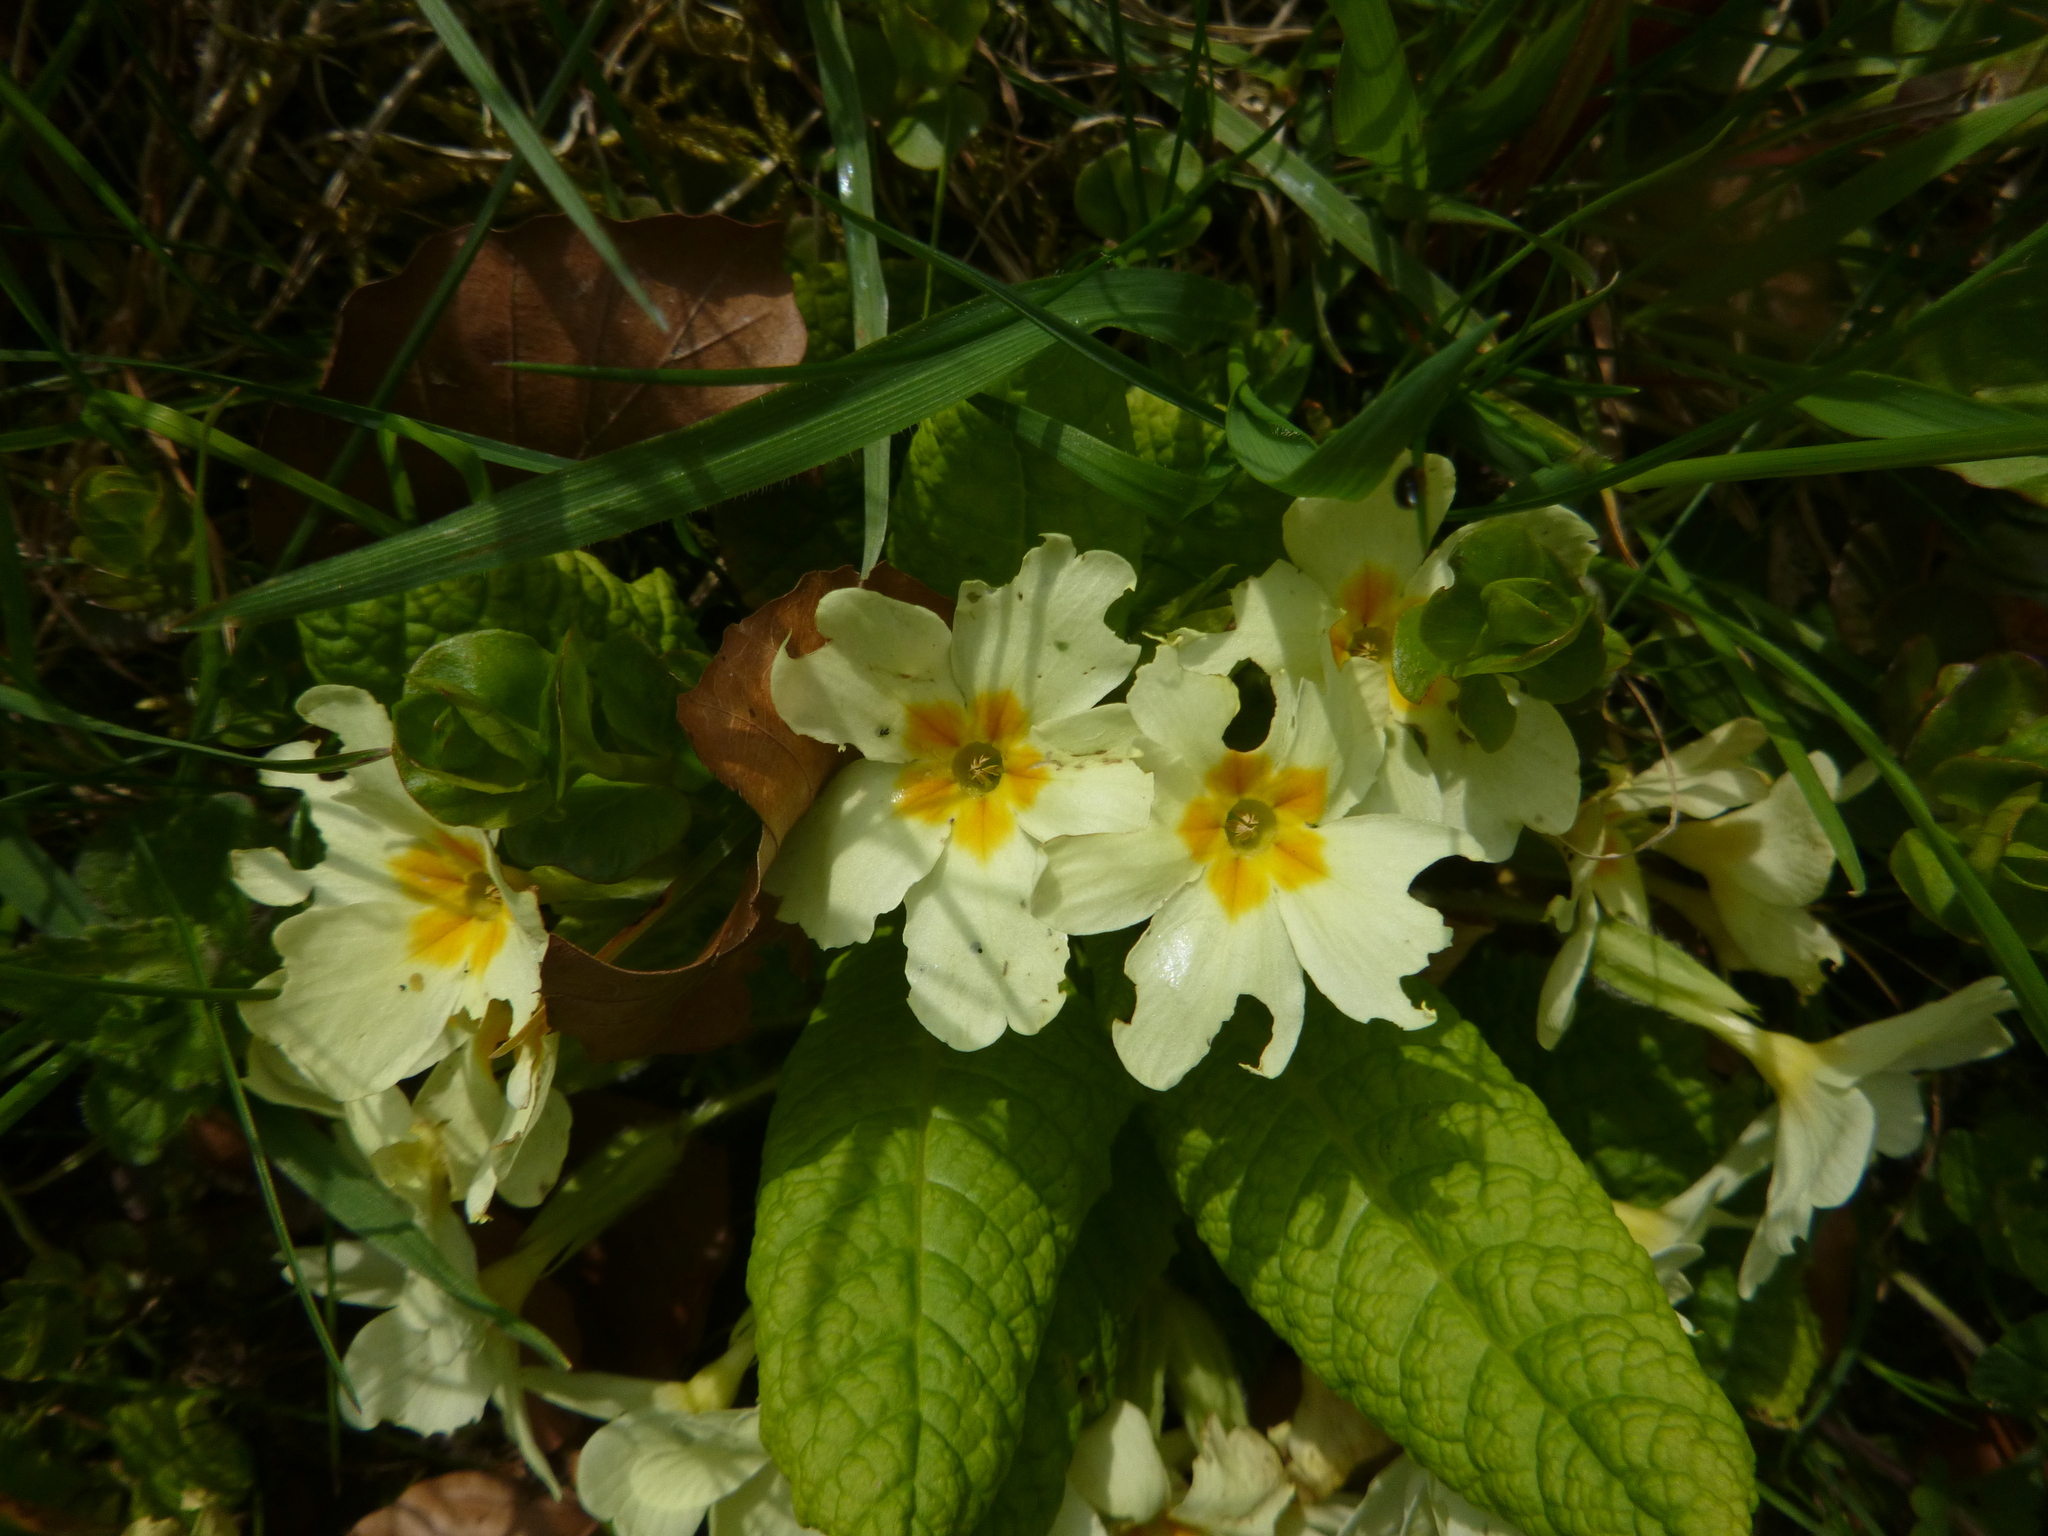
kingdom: Plantae
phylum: Tracheophyta
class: Magnoliopsida
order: Ericales
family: Primulaceae
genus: Primula
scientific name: Primula vulgaris
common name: Primrose
